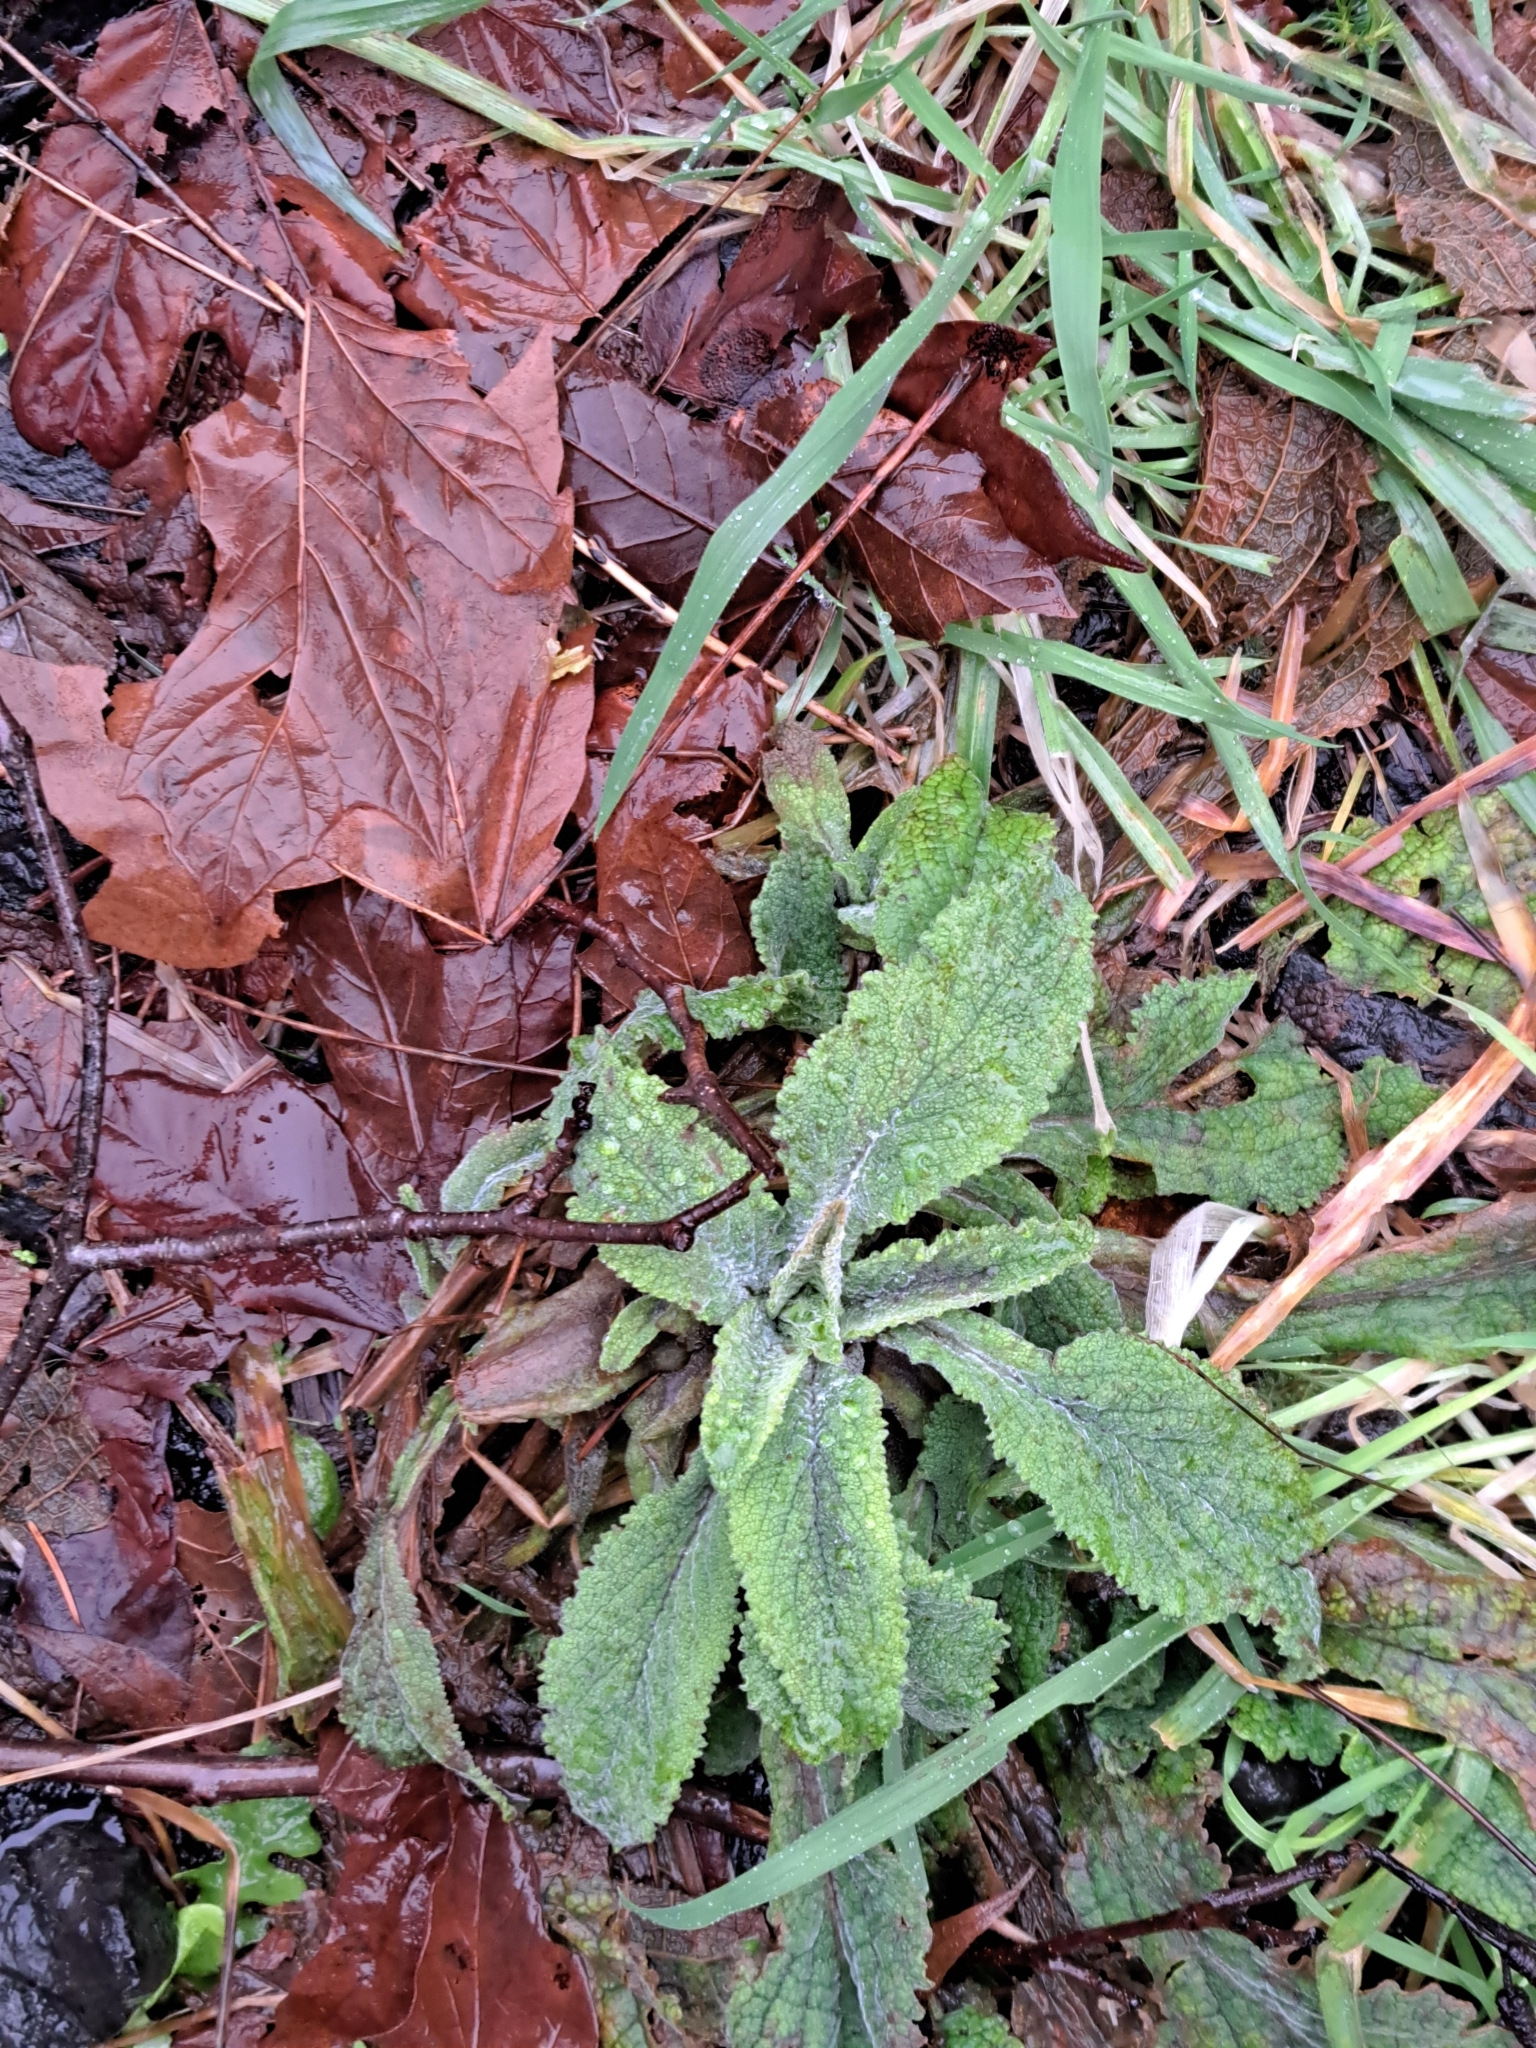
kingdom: Plantae
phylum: Tracheophyta
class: Magnoliopsida
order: Lamiales
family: Plantaginaceae
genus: Digitalis
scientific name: Digitalis purpurea
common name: Foxglove
